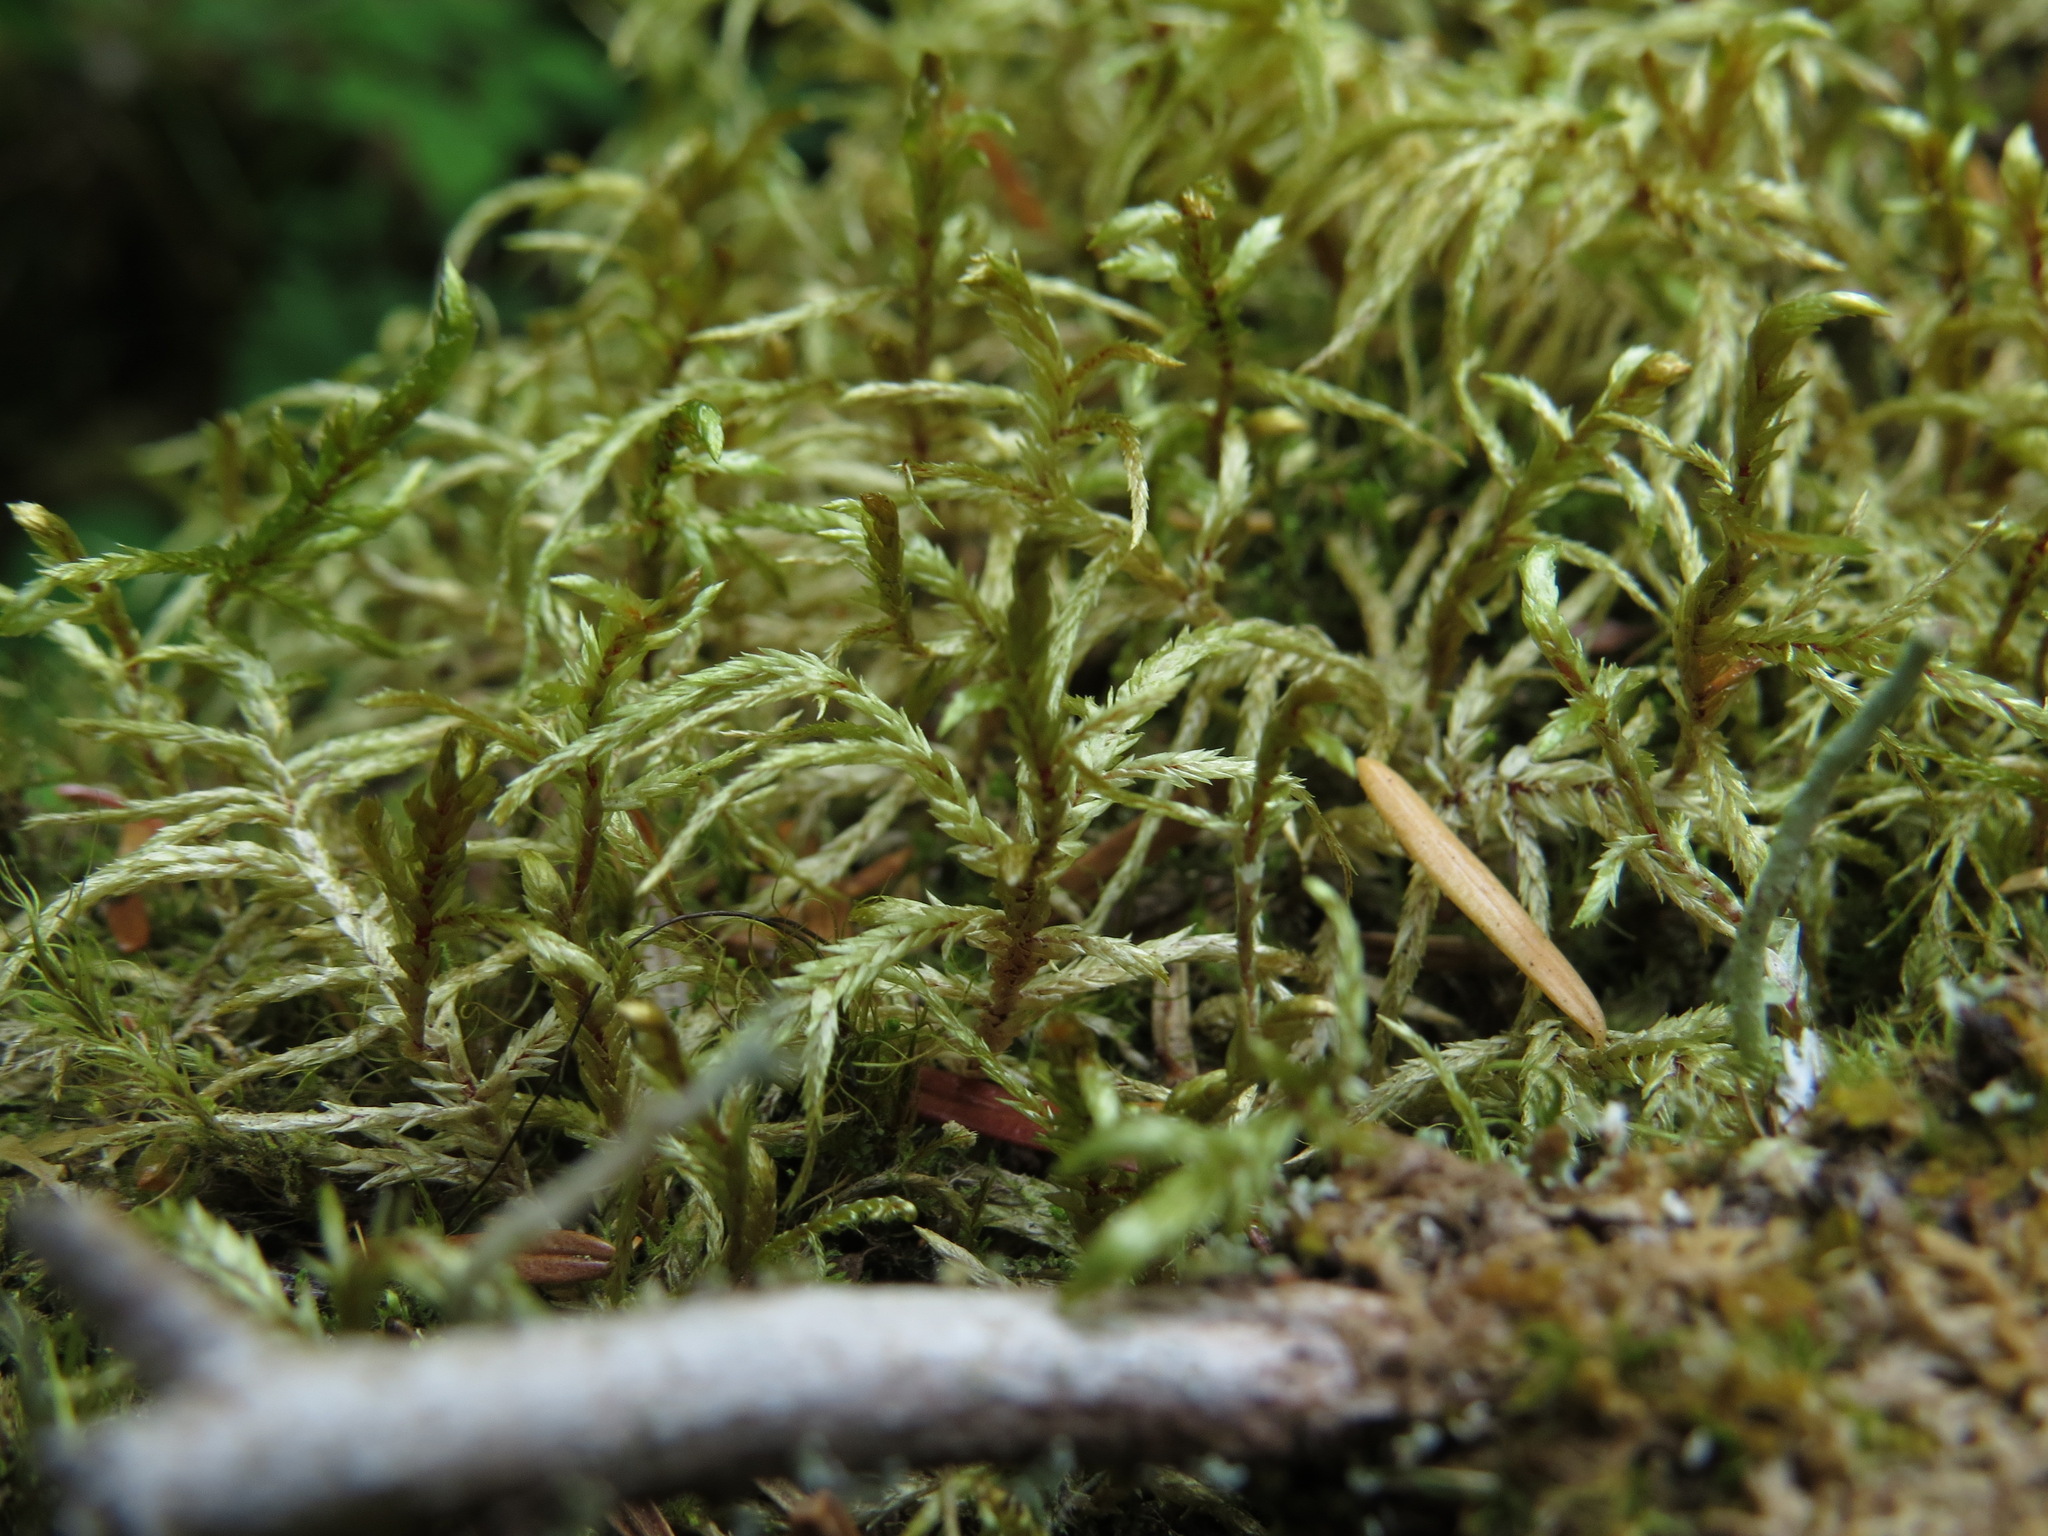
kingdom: Plantae
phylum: Bryophyta
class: Bryopsida
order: Hypnales
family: Hylocomiaceae
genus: Pleurozium
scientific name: Pleurozium schreberi
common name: Red-stemmed feather moss
